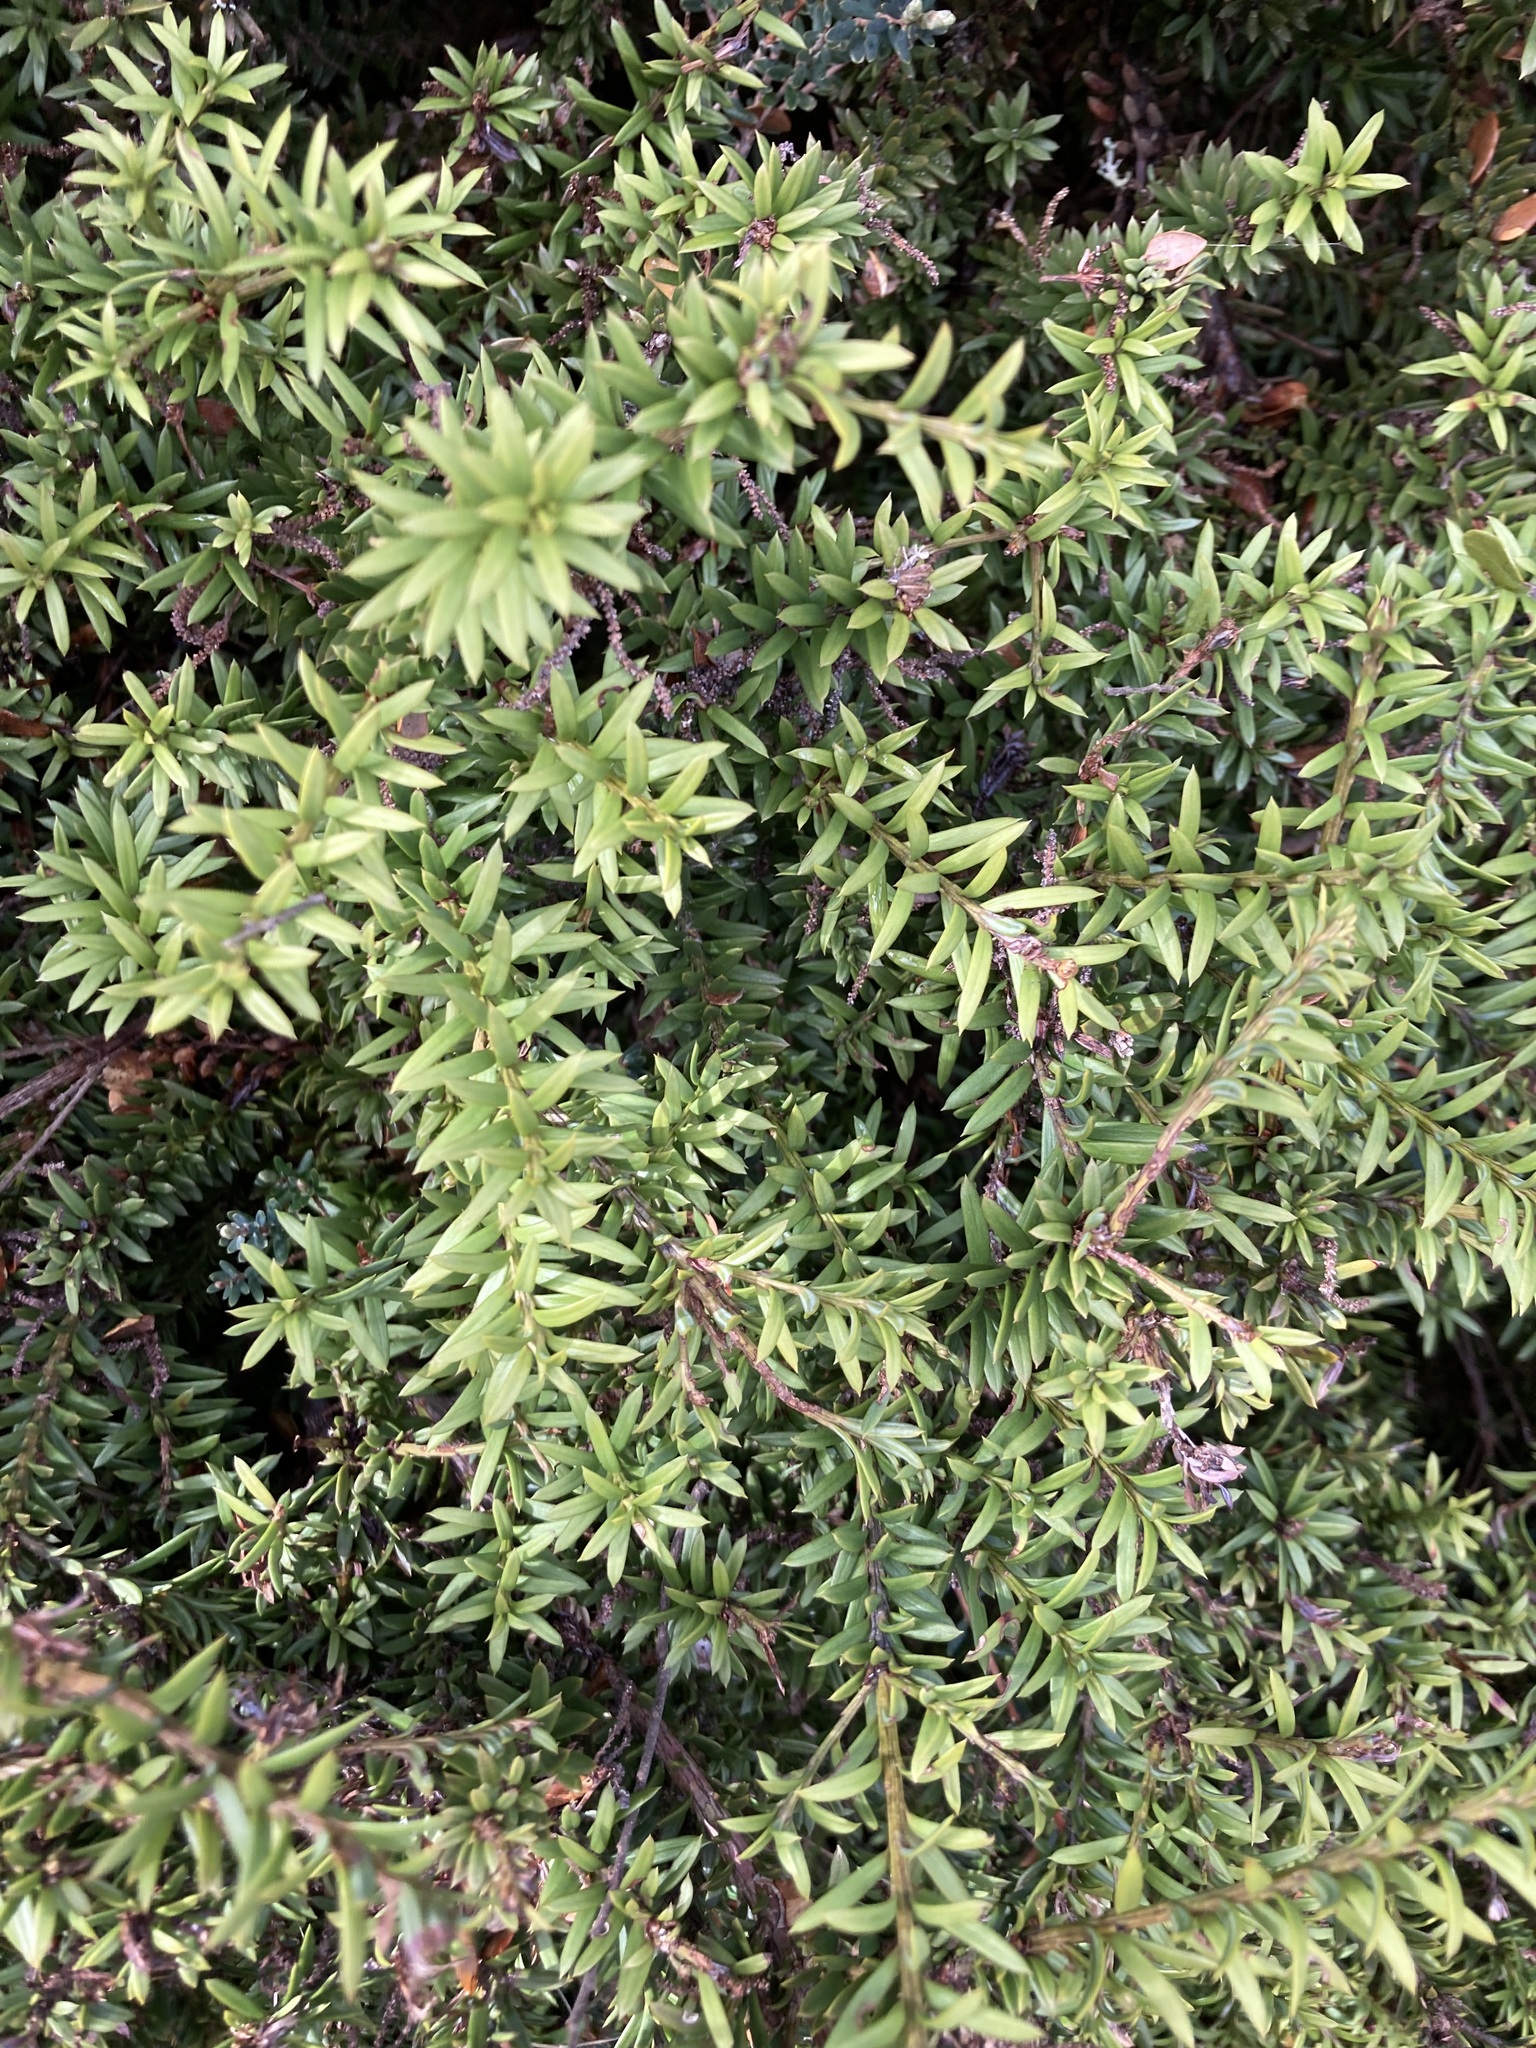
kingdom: Plantae
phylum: Tracheophyta
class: Pinopsida
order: Pinales
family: Podocarpaceae
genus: Podocarpus
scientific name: Podocarpus nivalis
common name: Alpine totara
